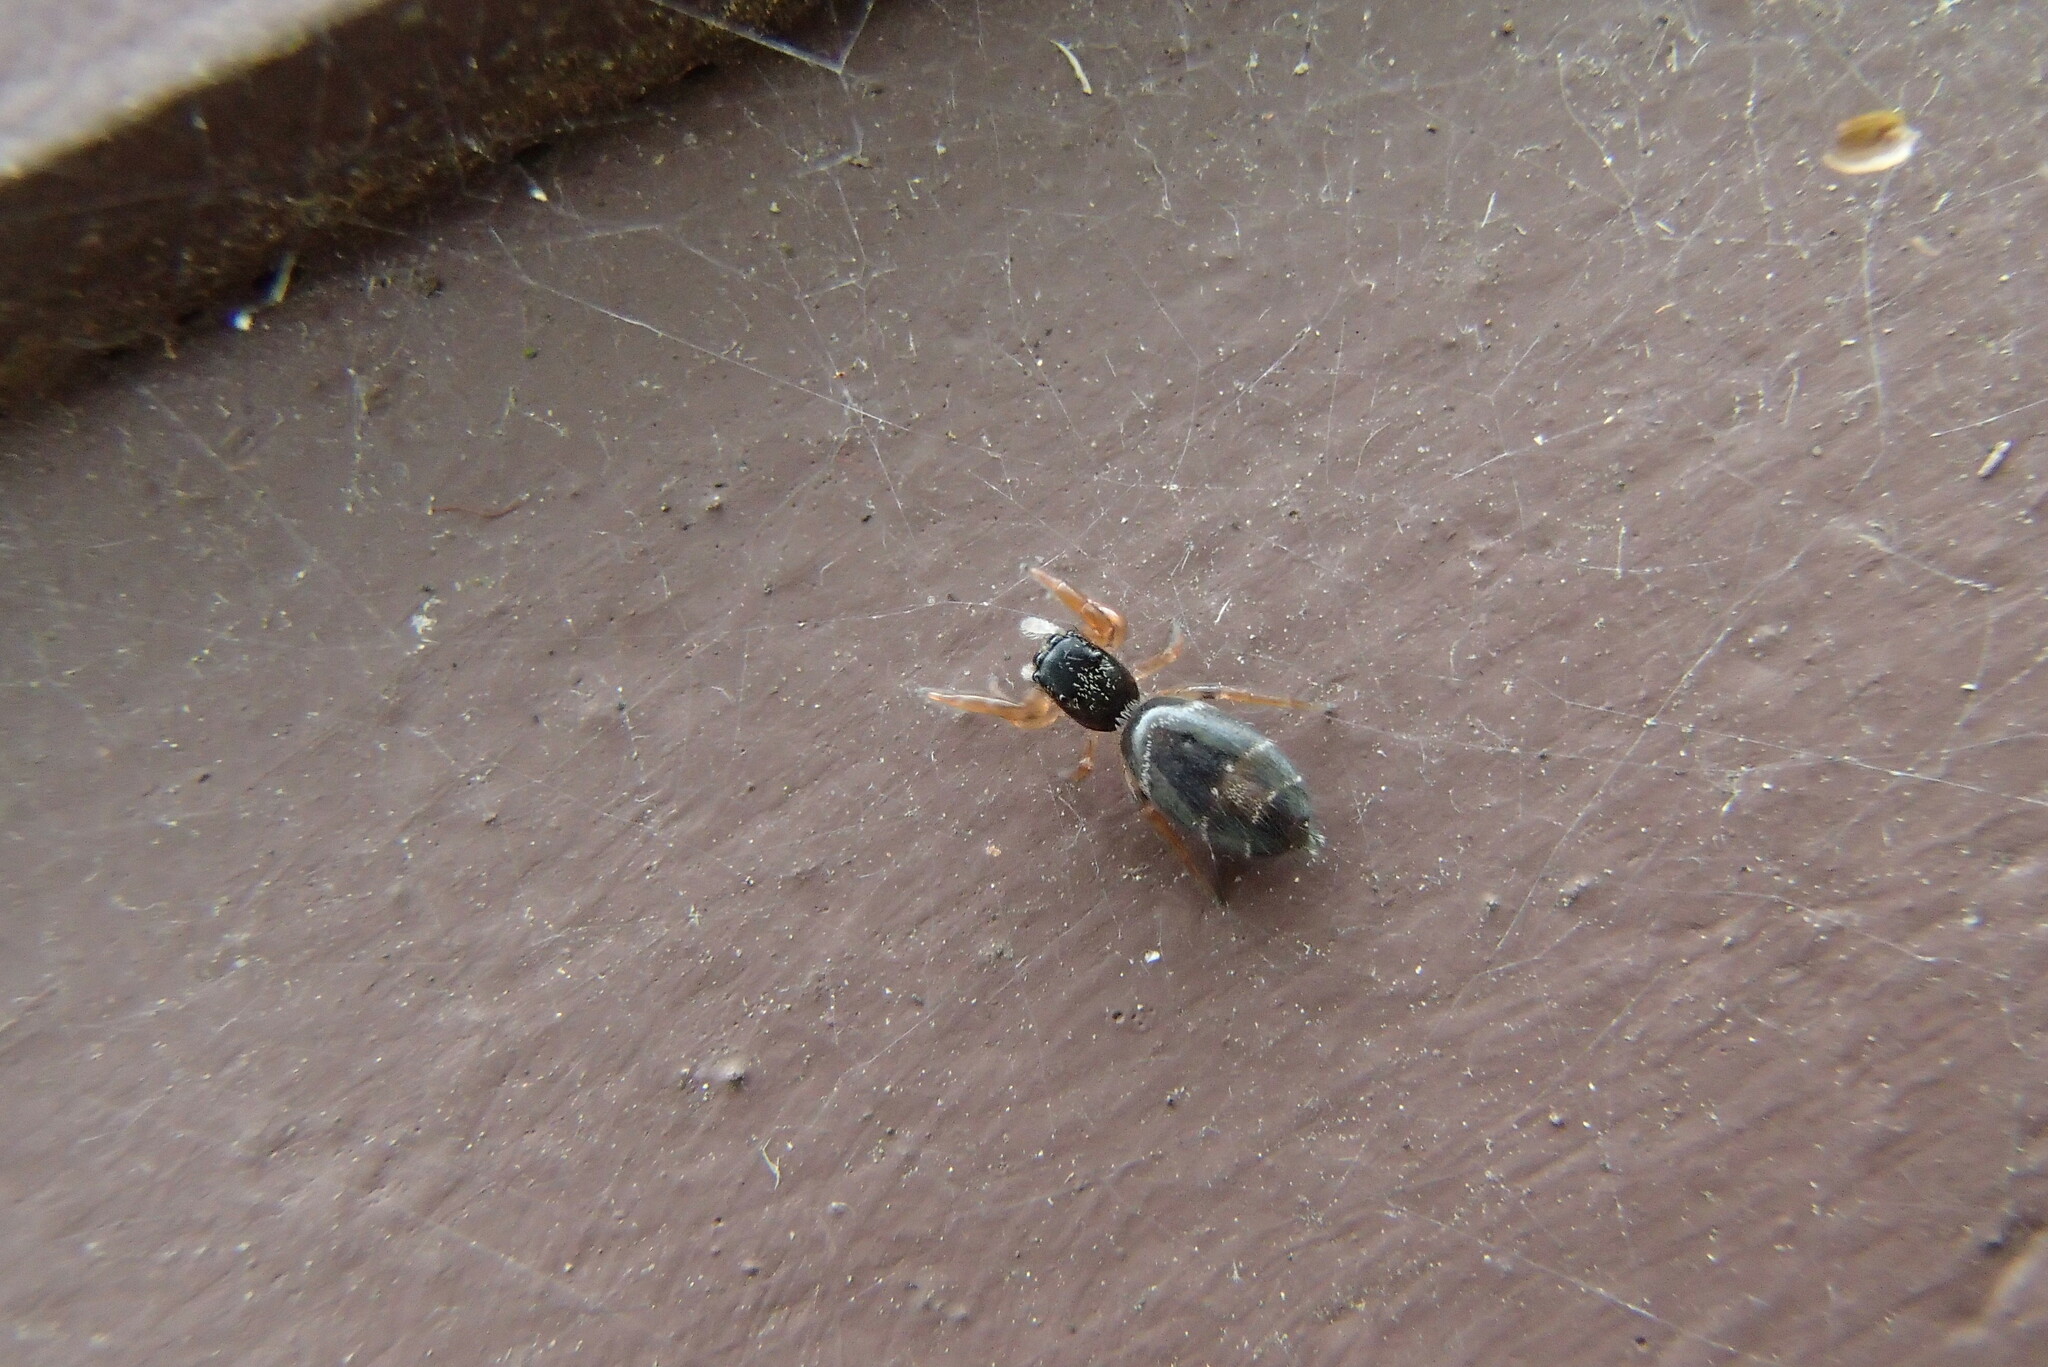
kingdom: Animalia
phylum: Arthropoda
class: Arachnida
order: Araneae
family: Salticidae
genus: Apricia
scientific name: Apricia jovialis
